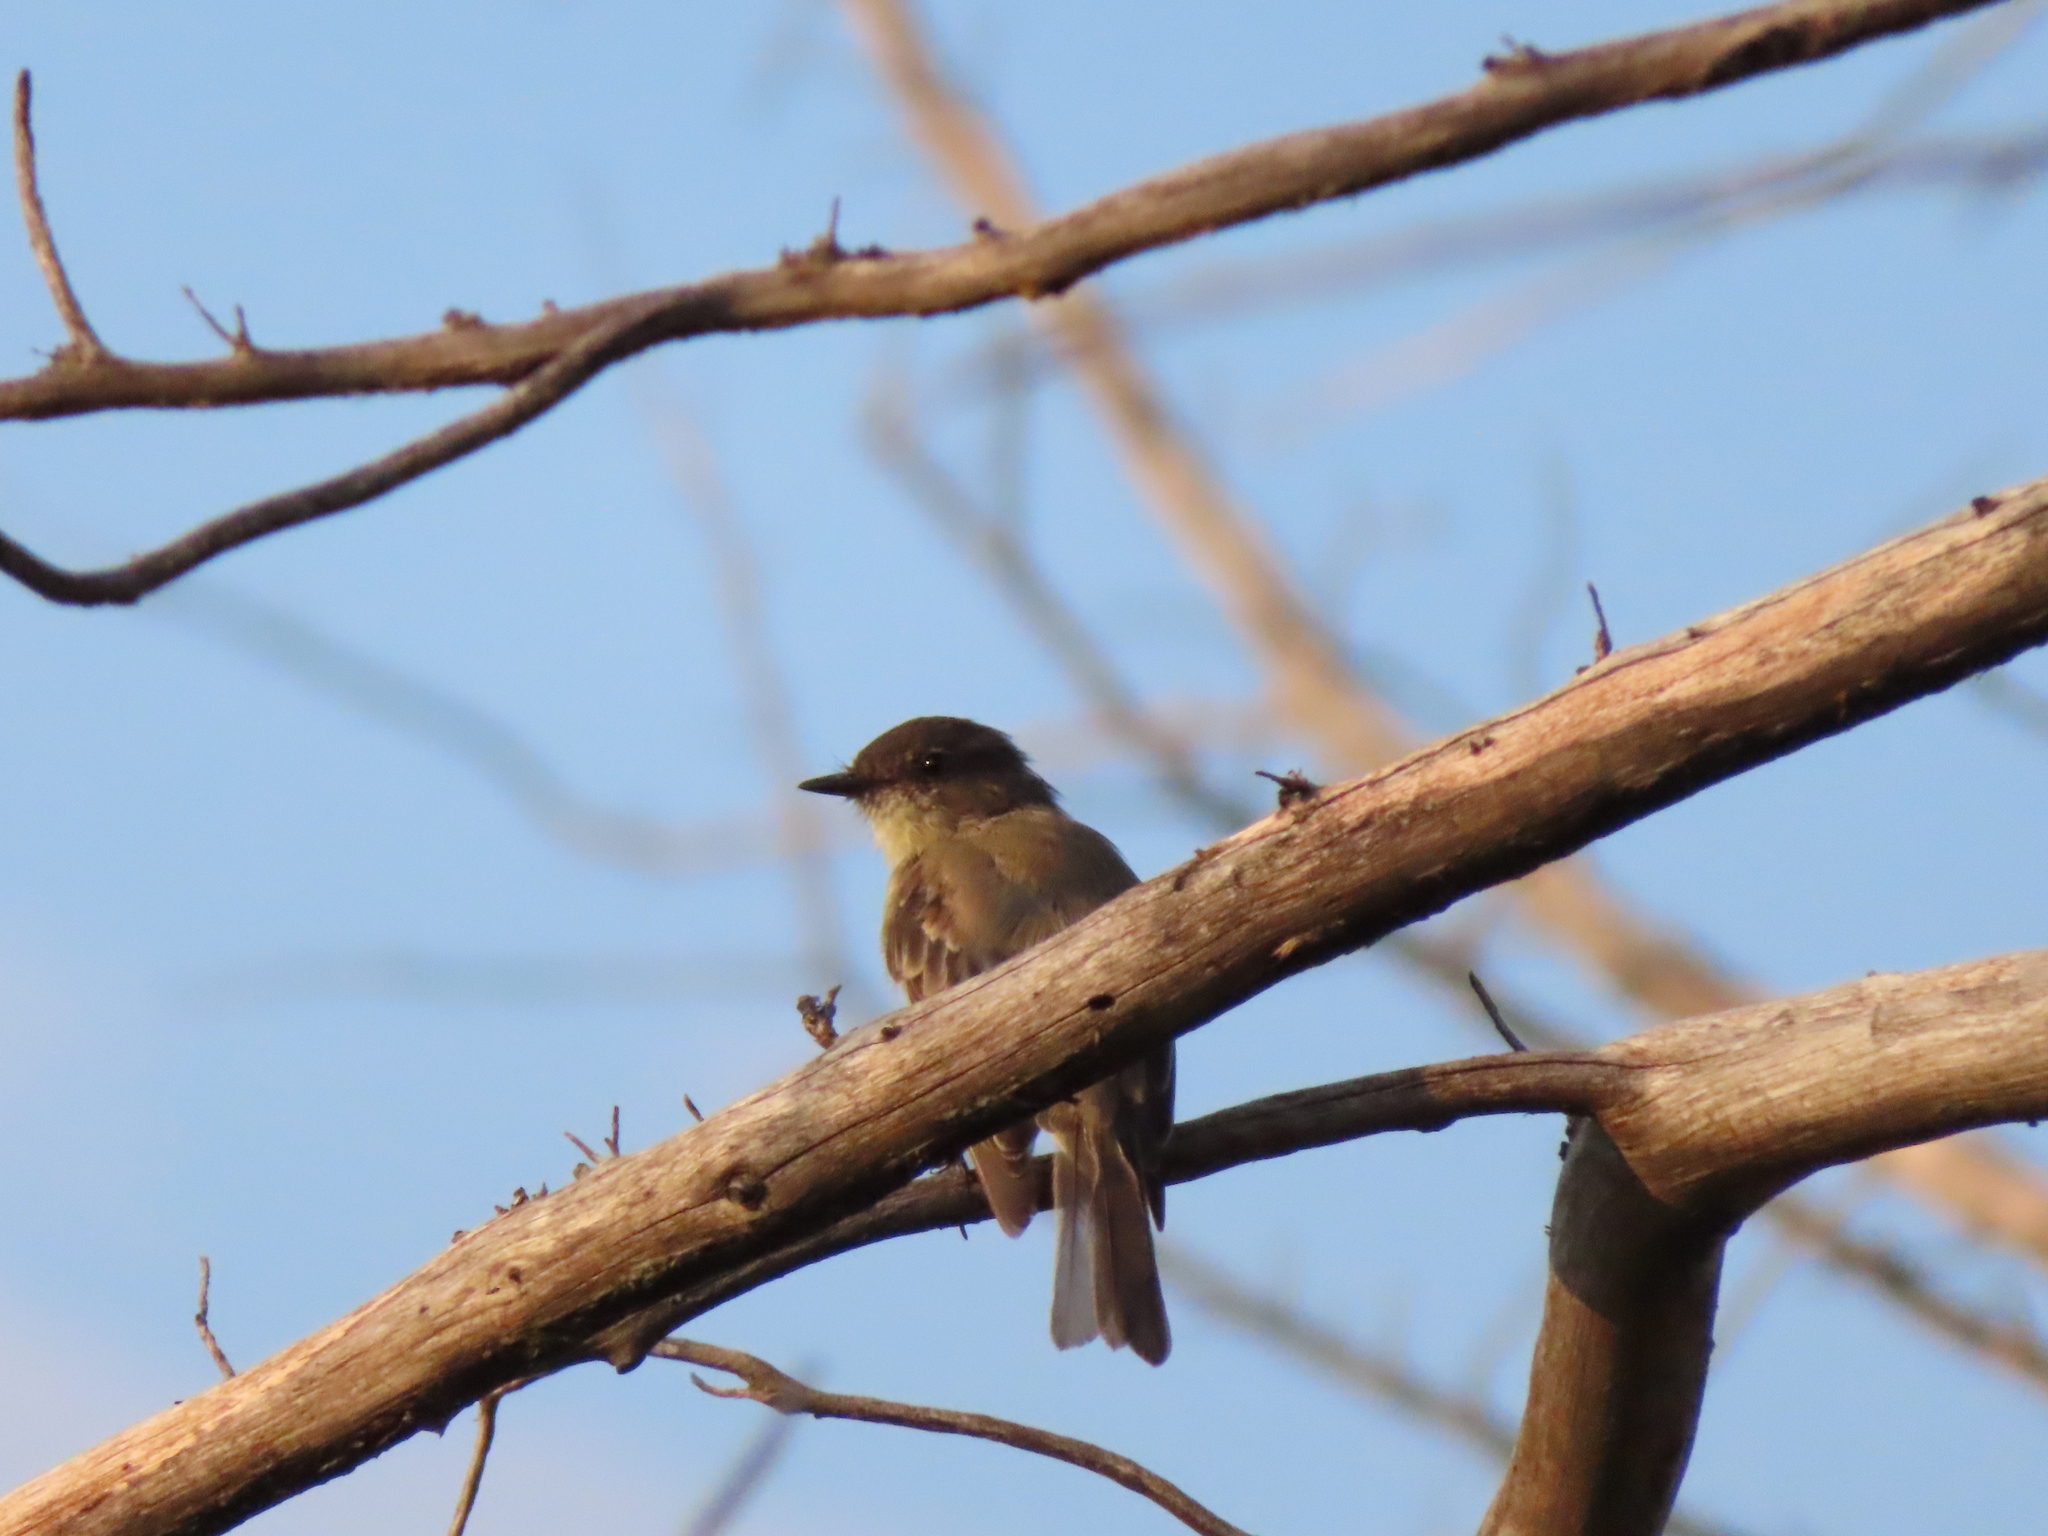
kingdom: Animalia
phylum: Chordata
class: Aves
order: Passeriformes
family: Tyrannidae
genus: Sayornis
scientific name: Sayornis phoebe
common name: Eastern phoebe
